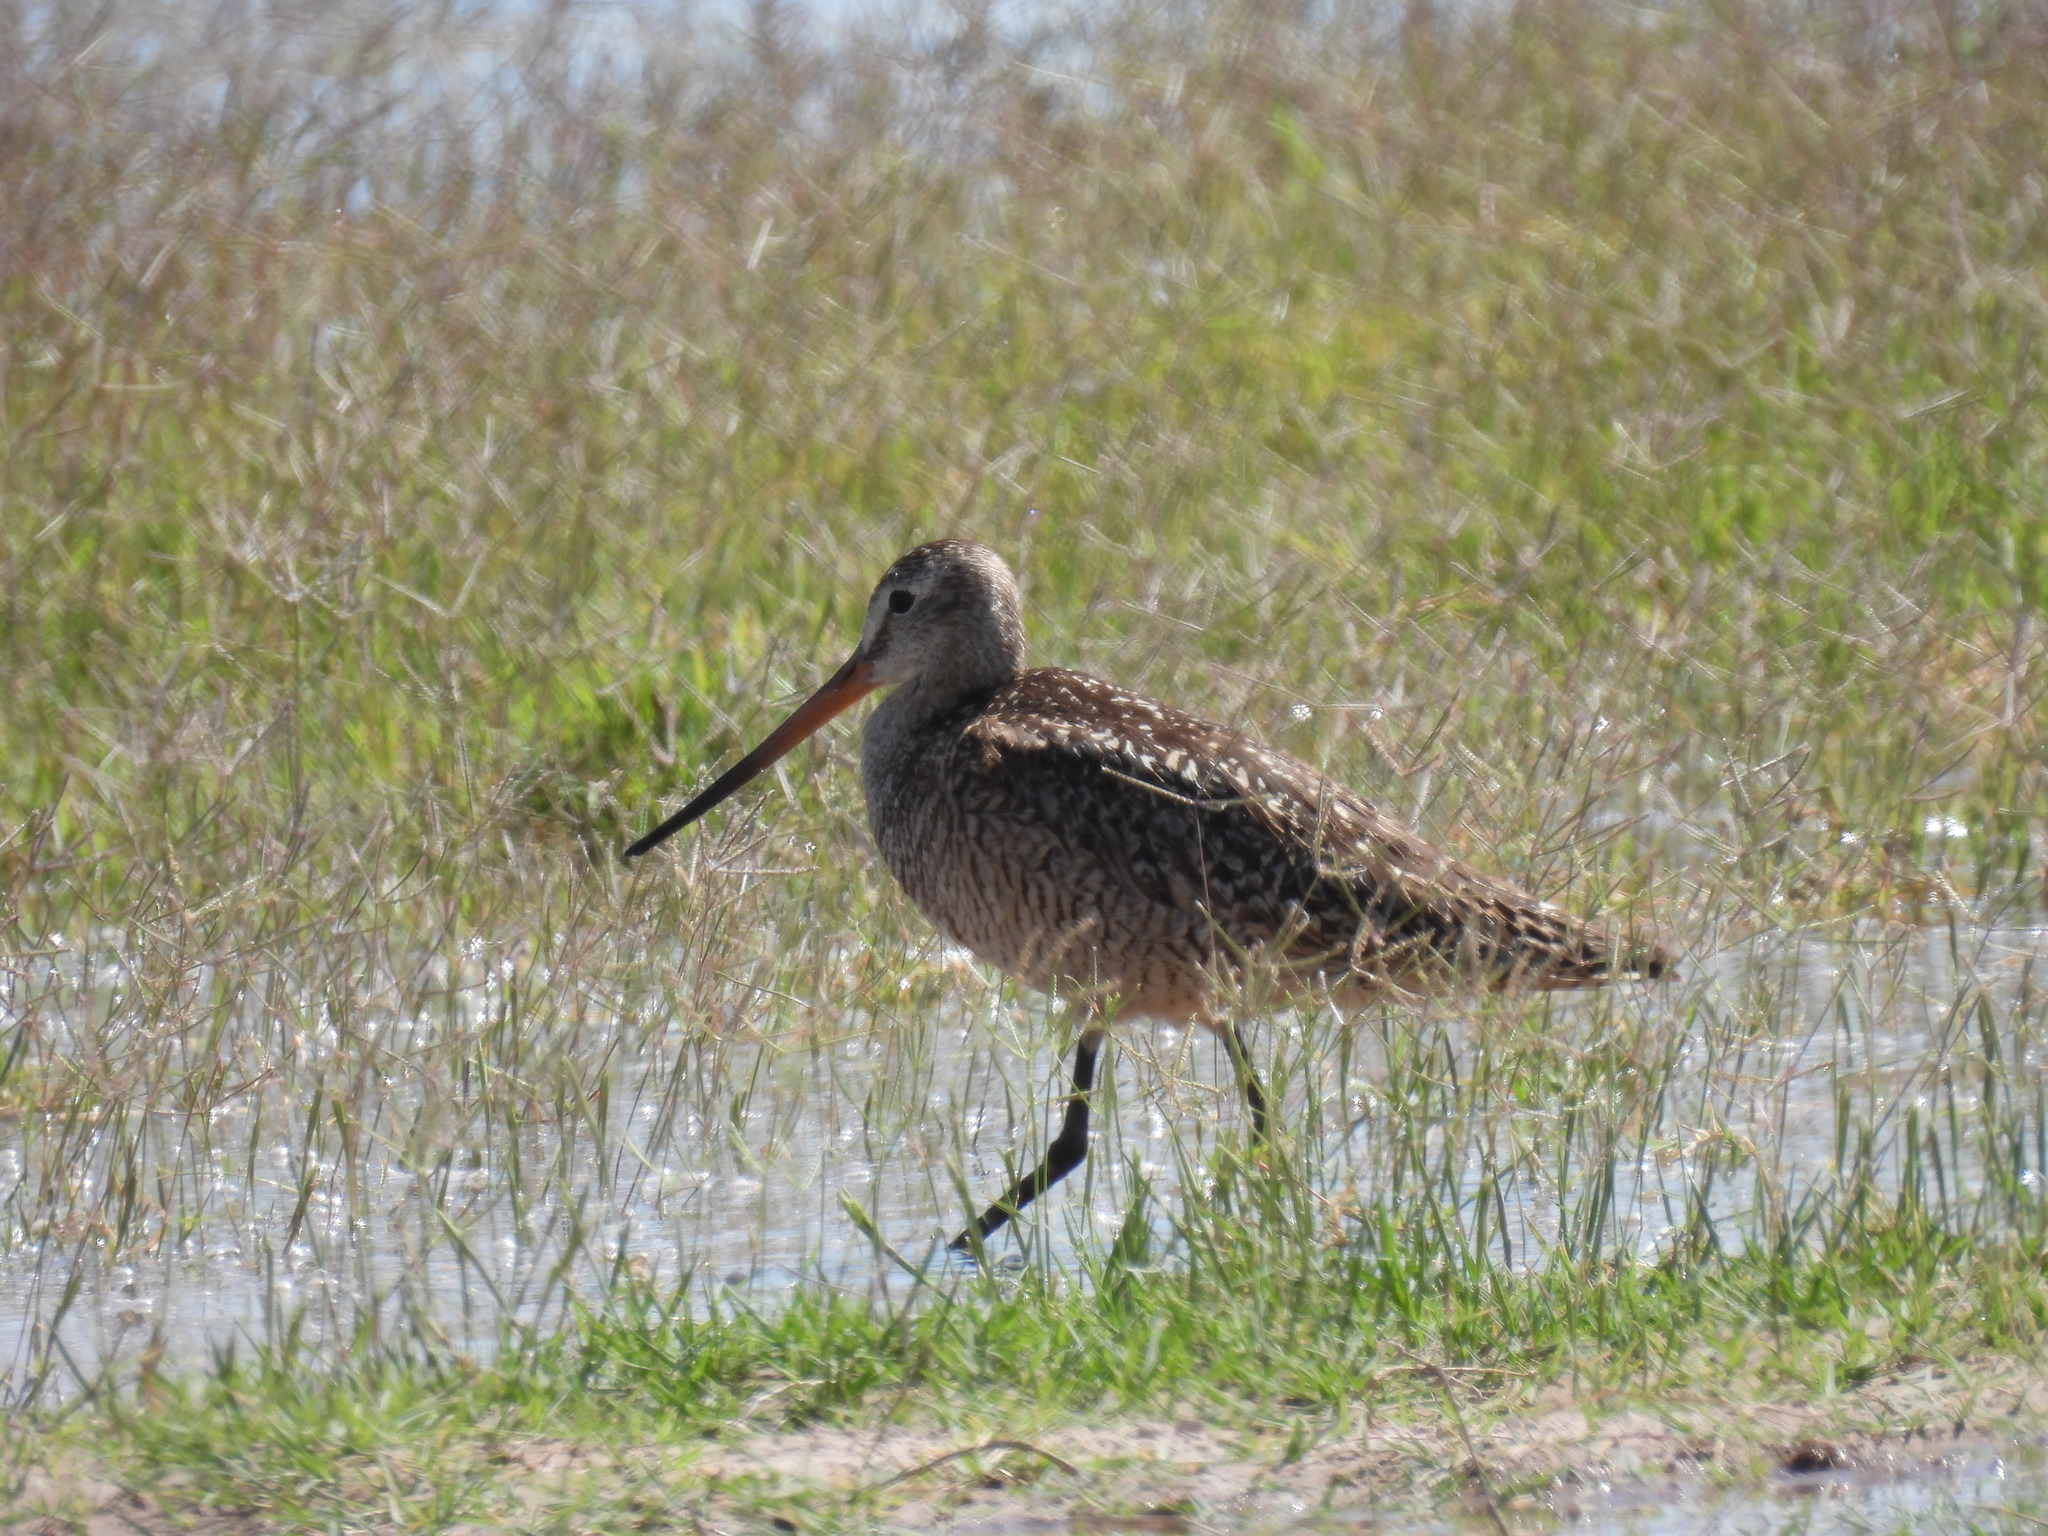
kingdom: Animalia
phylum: Chordata
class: Aves
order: Charadriiformes
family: Scolopacidae
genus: Limosa
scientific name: Limosa fedoa
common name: Marbled godwit
